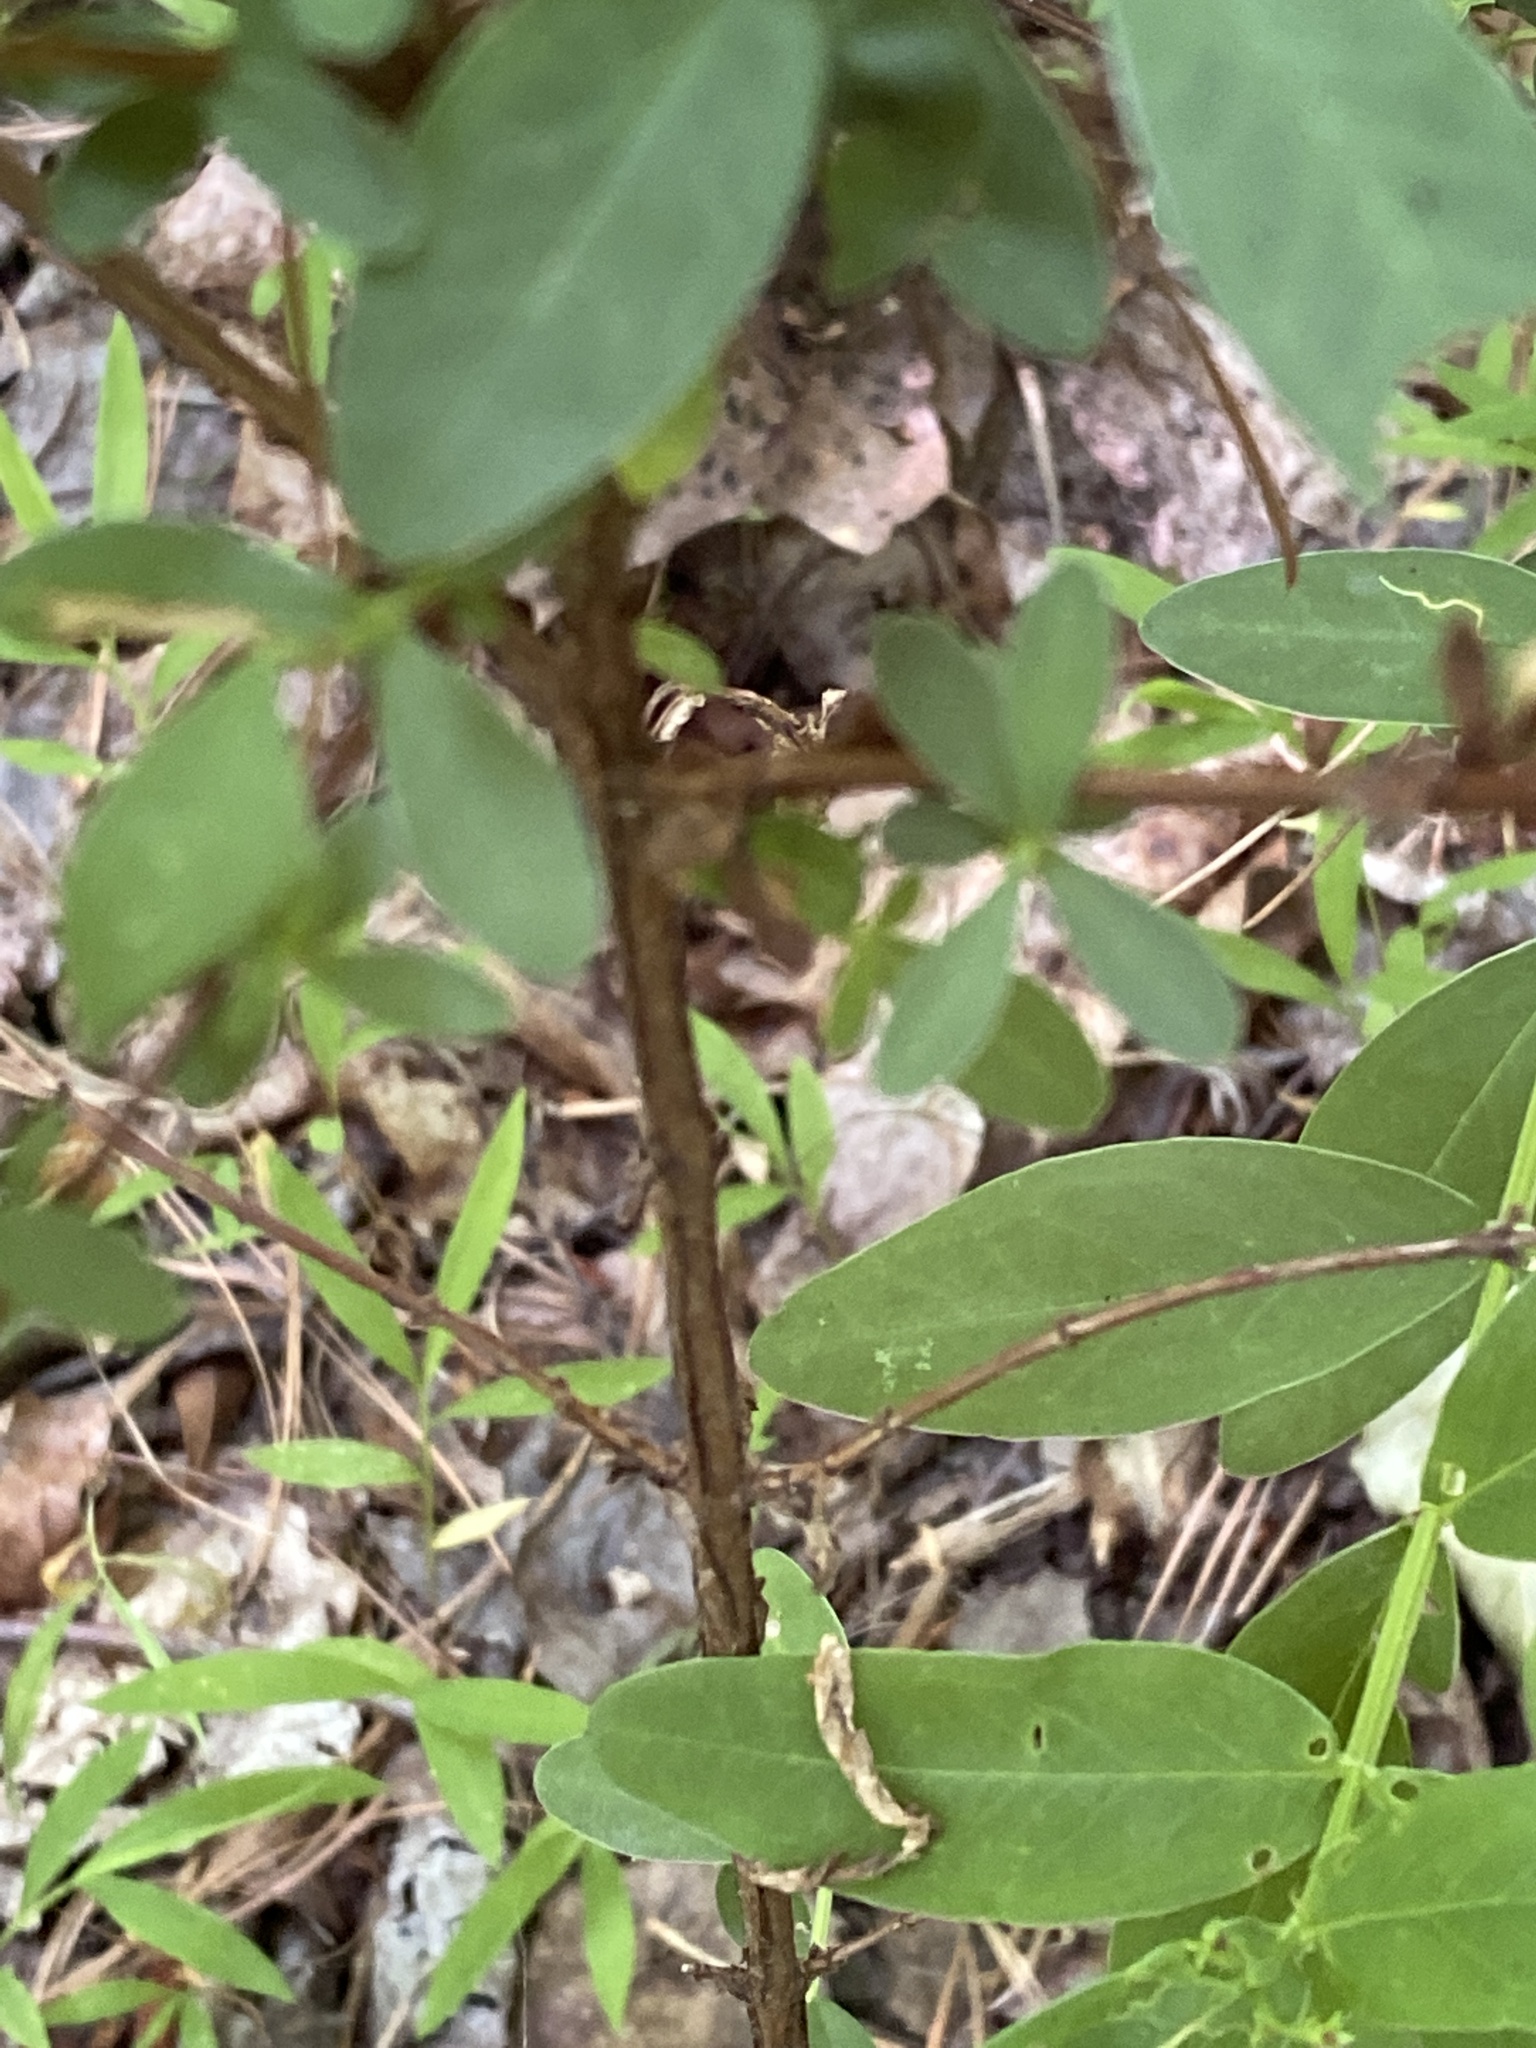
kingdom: Plantae
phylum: Tracheophyta
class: Magnoliopsida
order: Malpighiales
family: Hypericaceae
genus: Hypericum
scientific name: Hypericum nudiflorum
